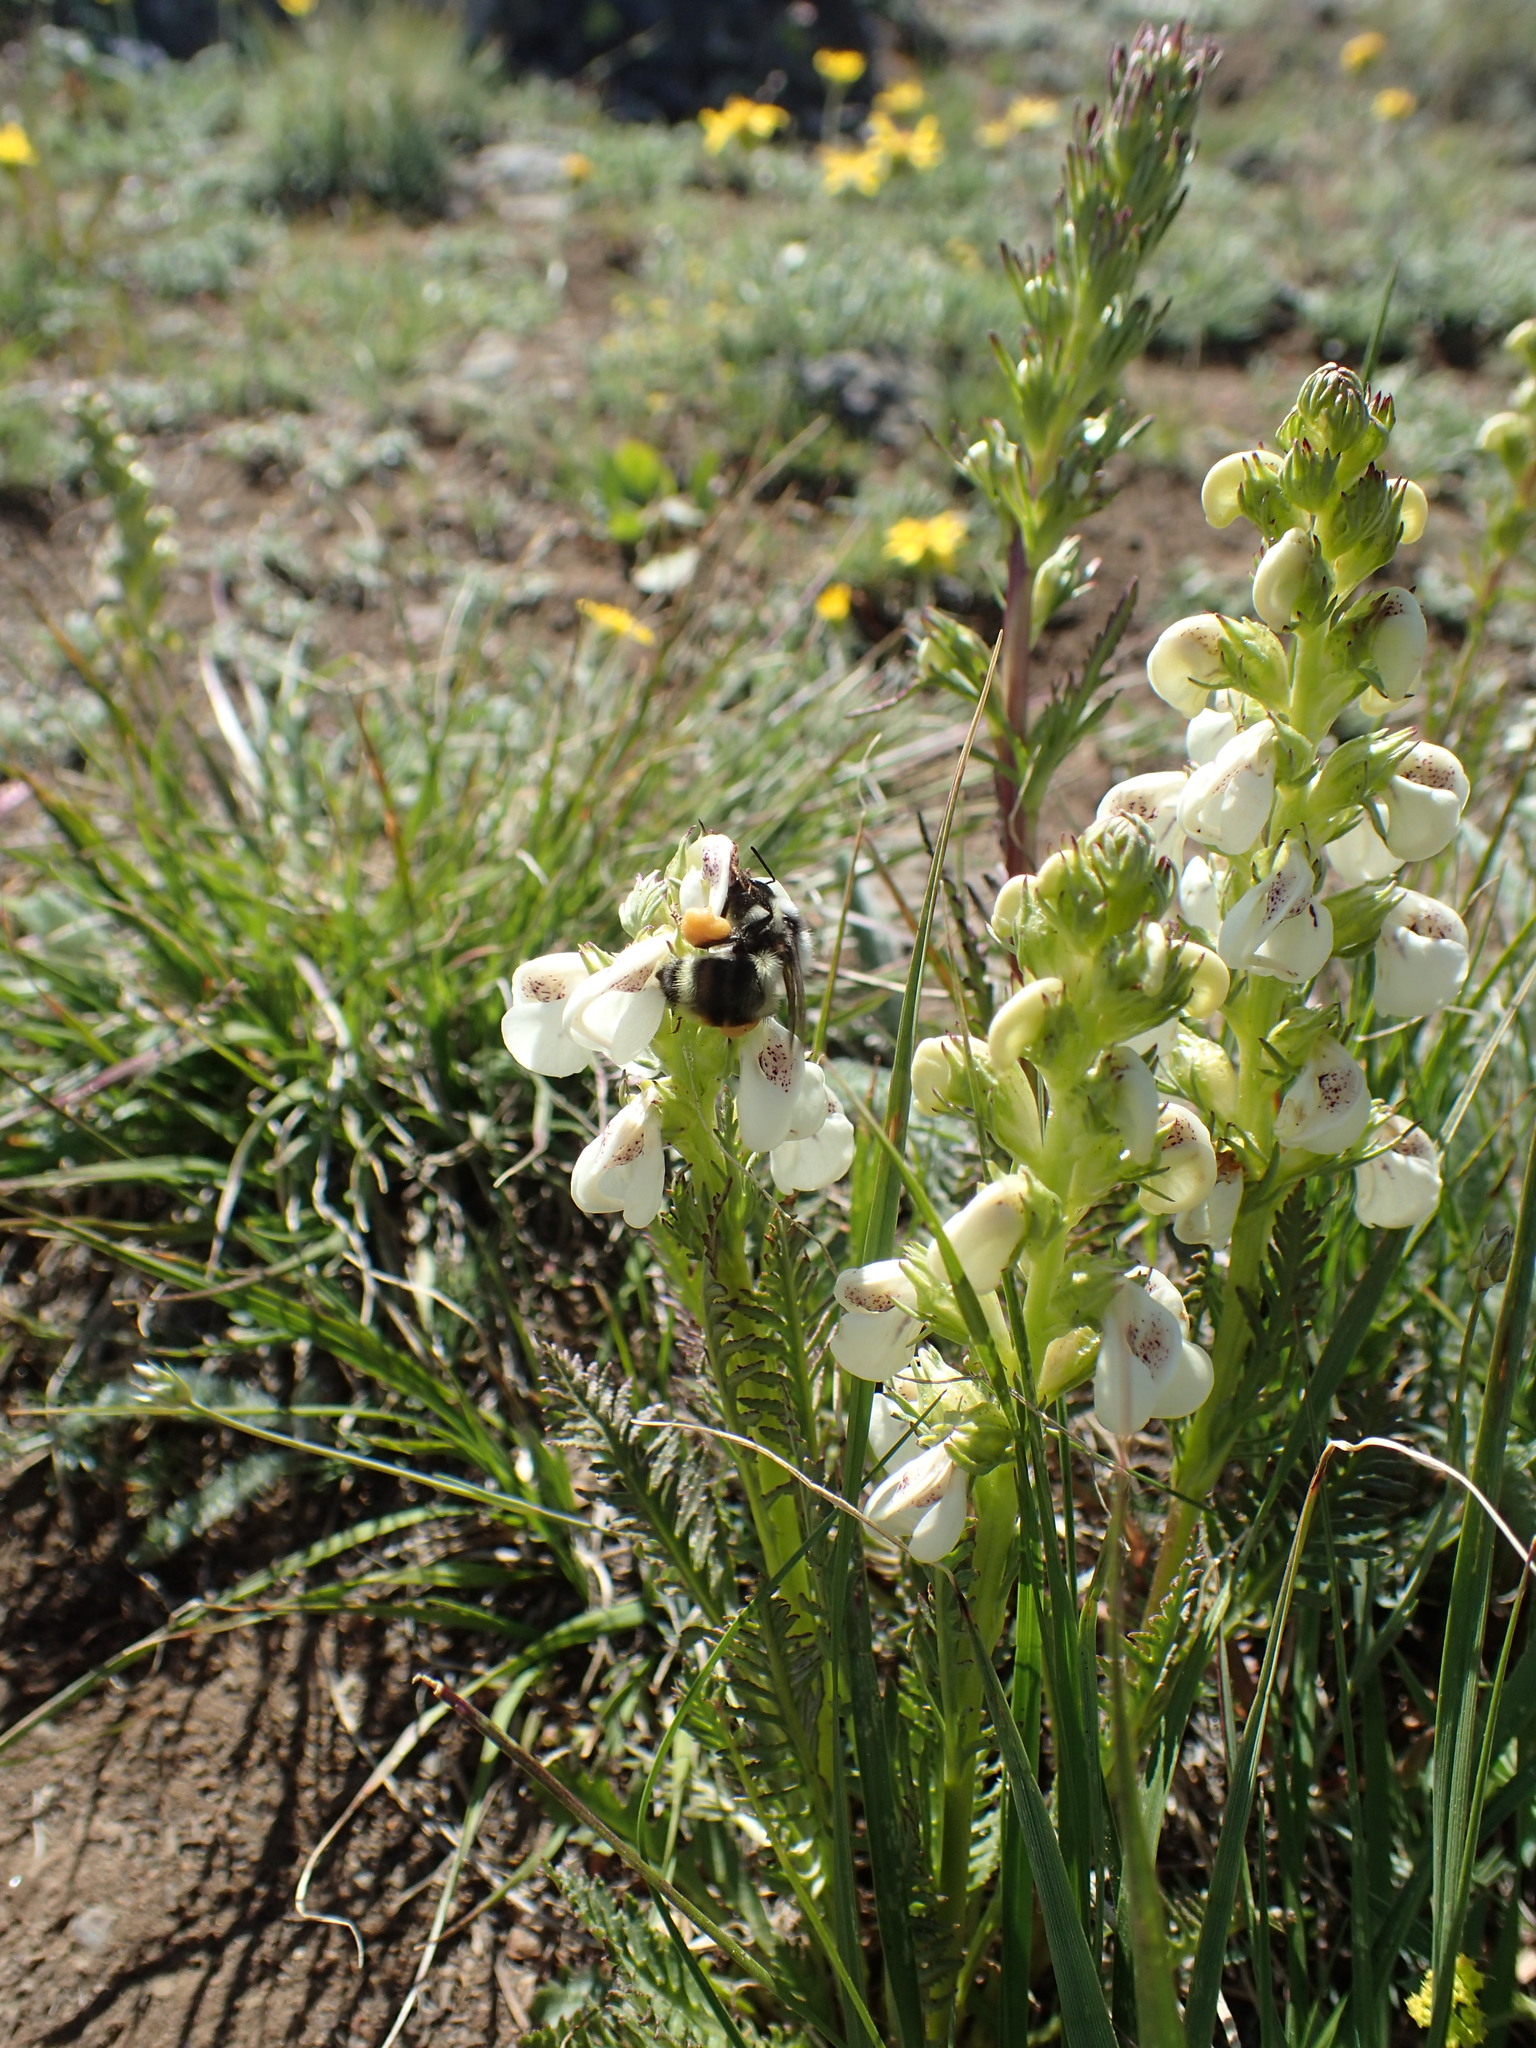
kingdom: Plantae
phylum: Tracheophyta
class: Magnoliopsida
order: Lamiales
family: Orobanchaceae
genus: Pedicularis
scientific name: Pedicularis contorta
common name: Coiled lousewort
